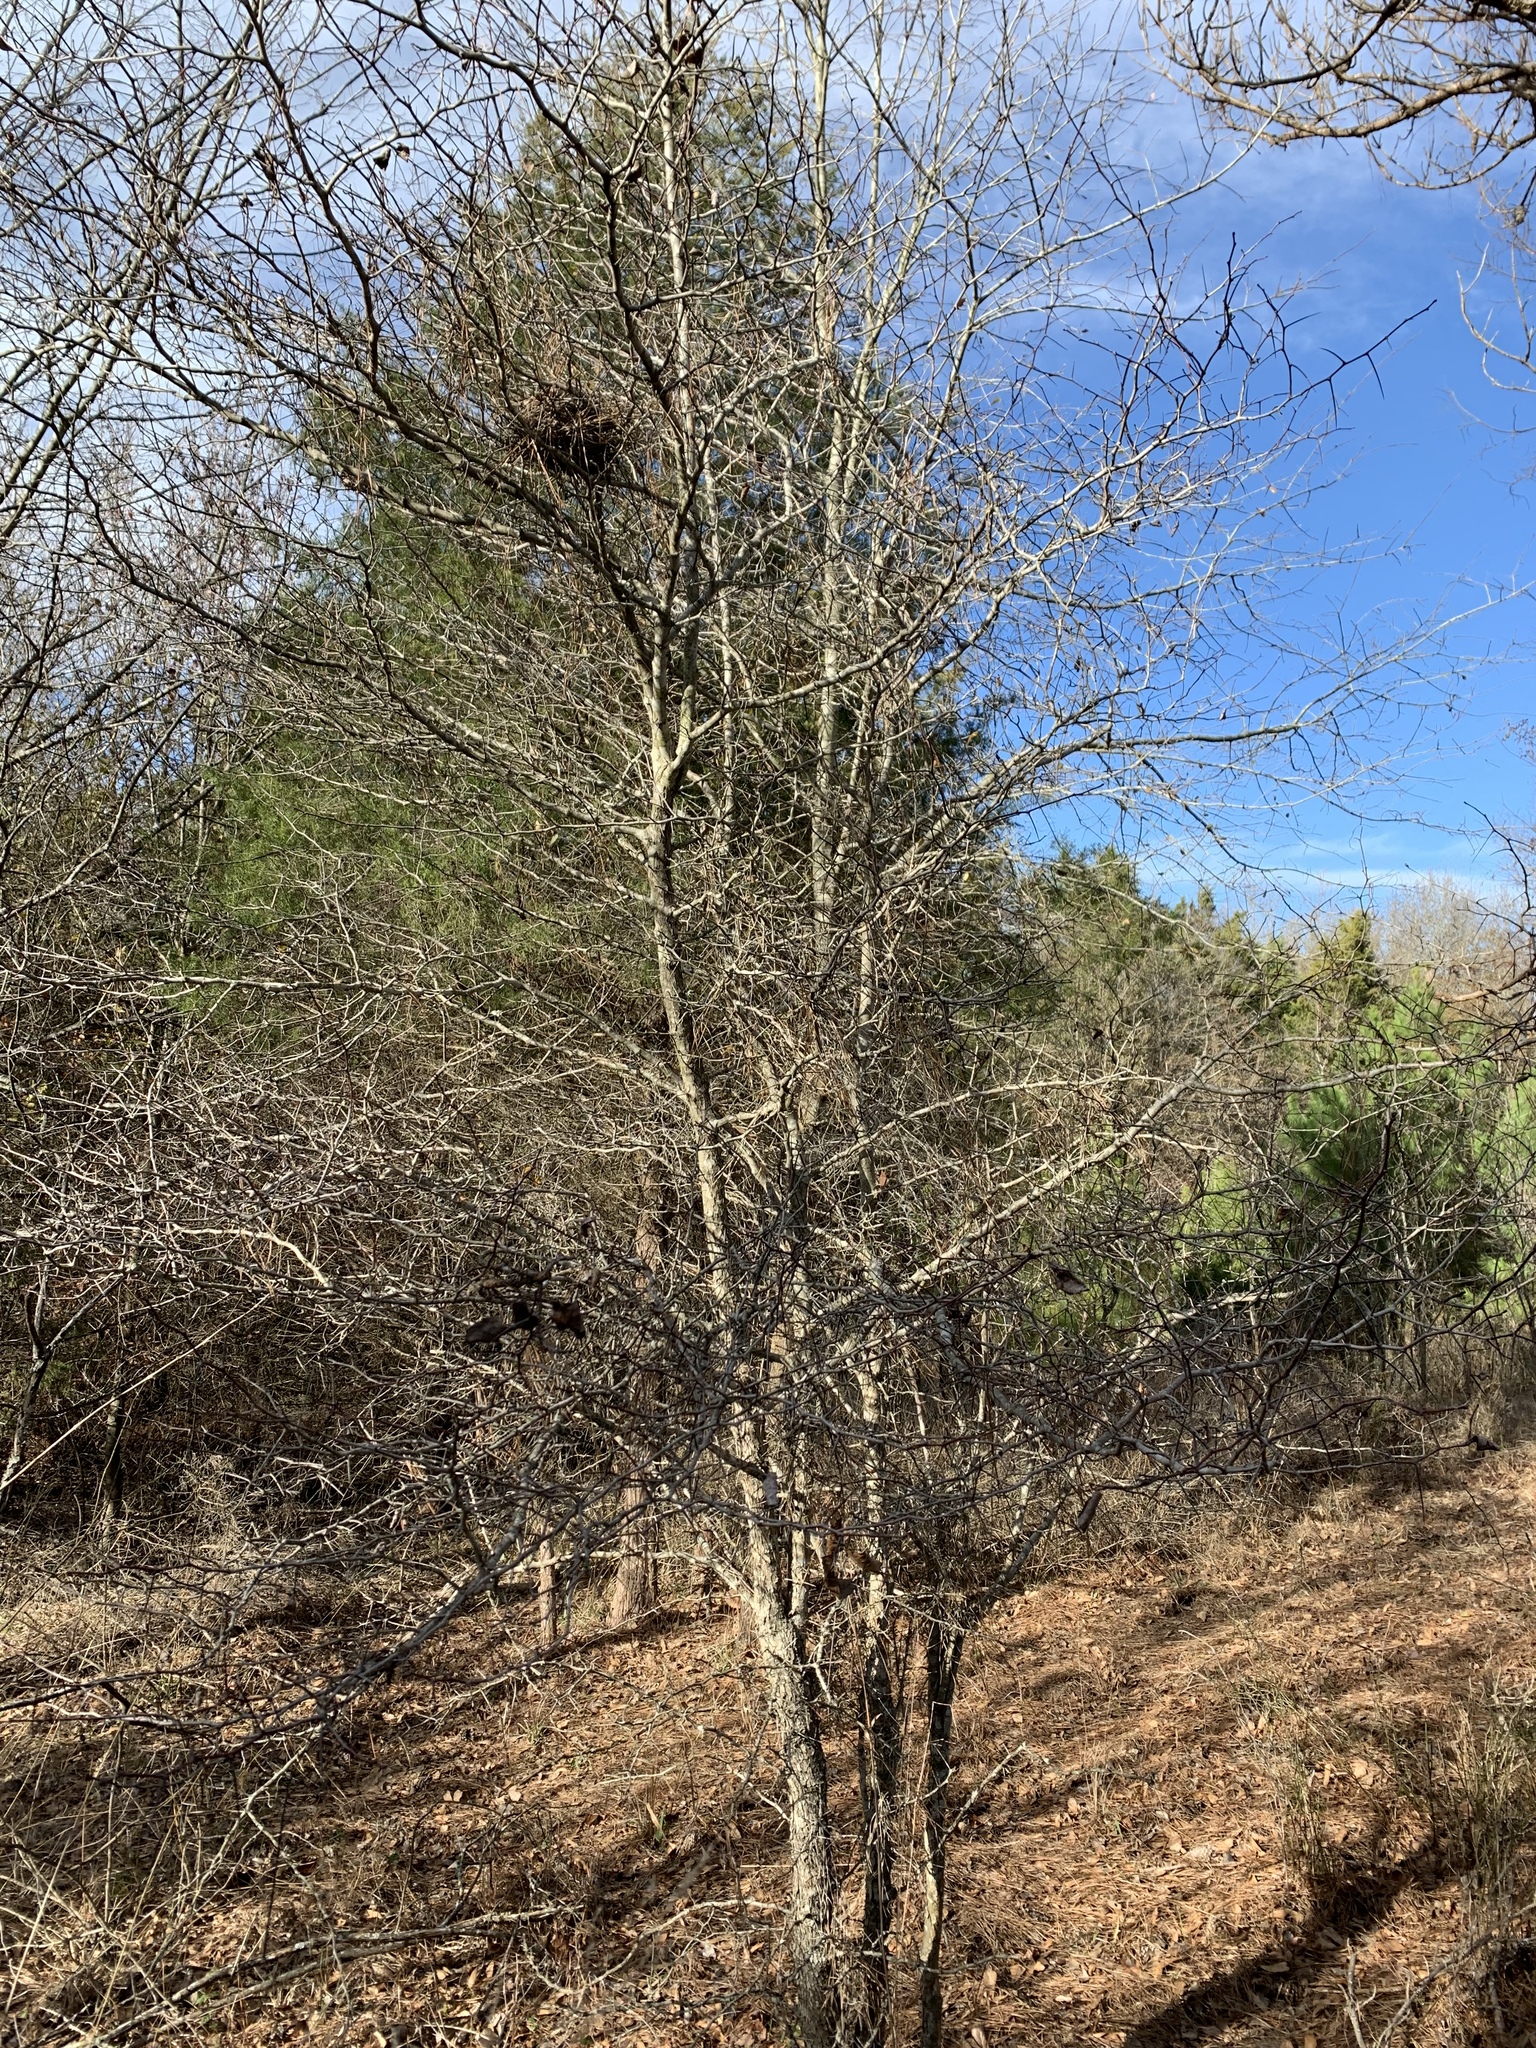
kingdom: Plantae
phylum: Tracheophyta
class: Magnoliopsida
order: Rosales
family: Rosaceae
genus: Crataegus
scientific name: Crataegus crus-galli
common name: Cockspurthorn
